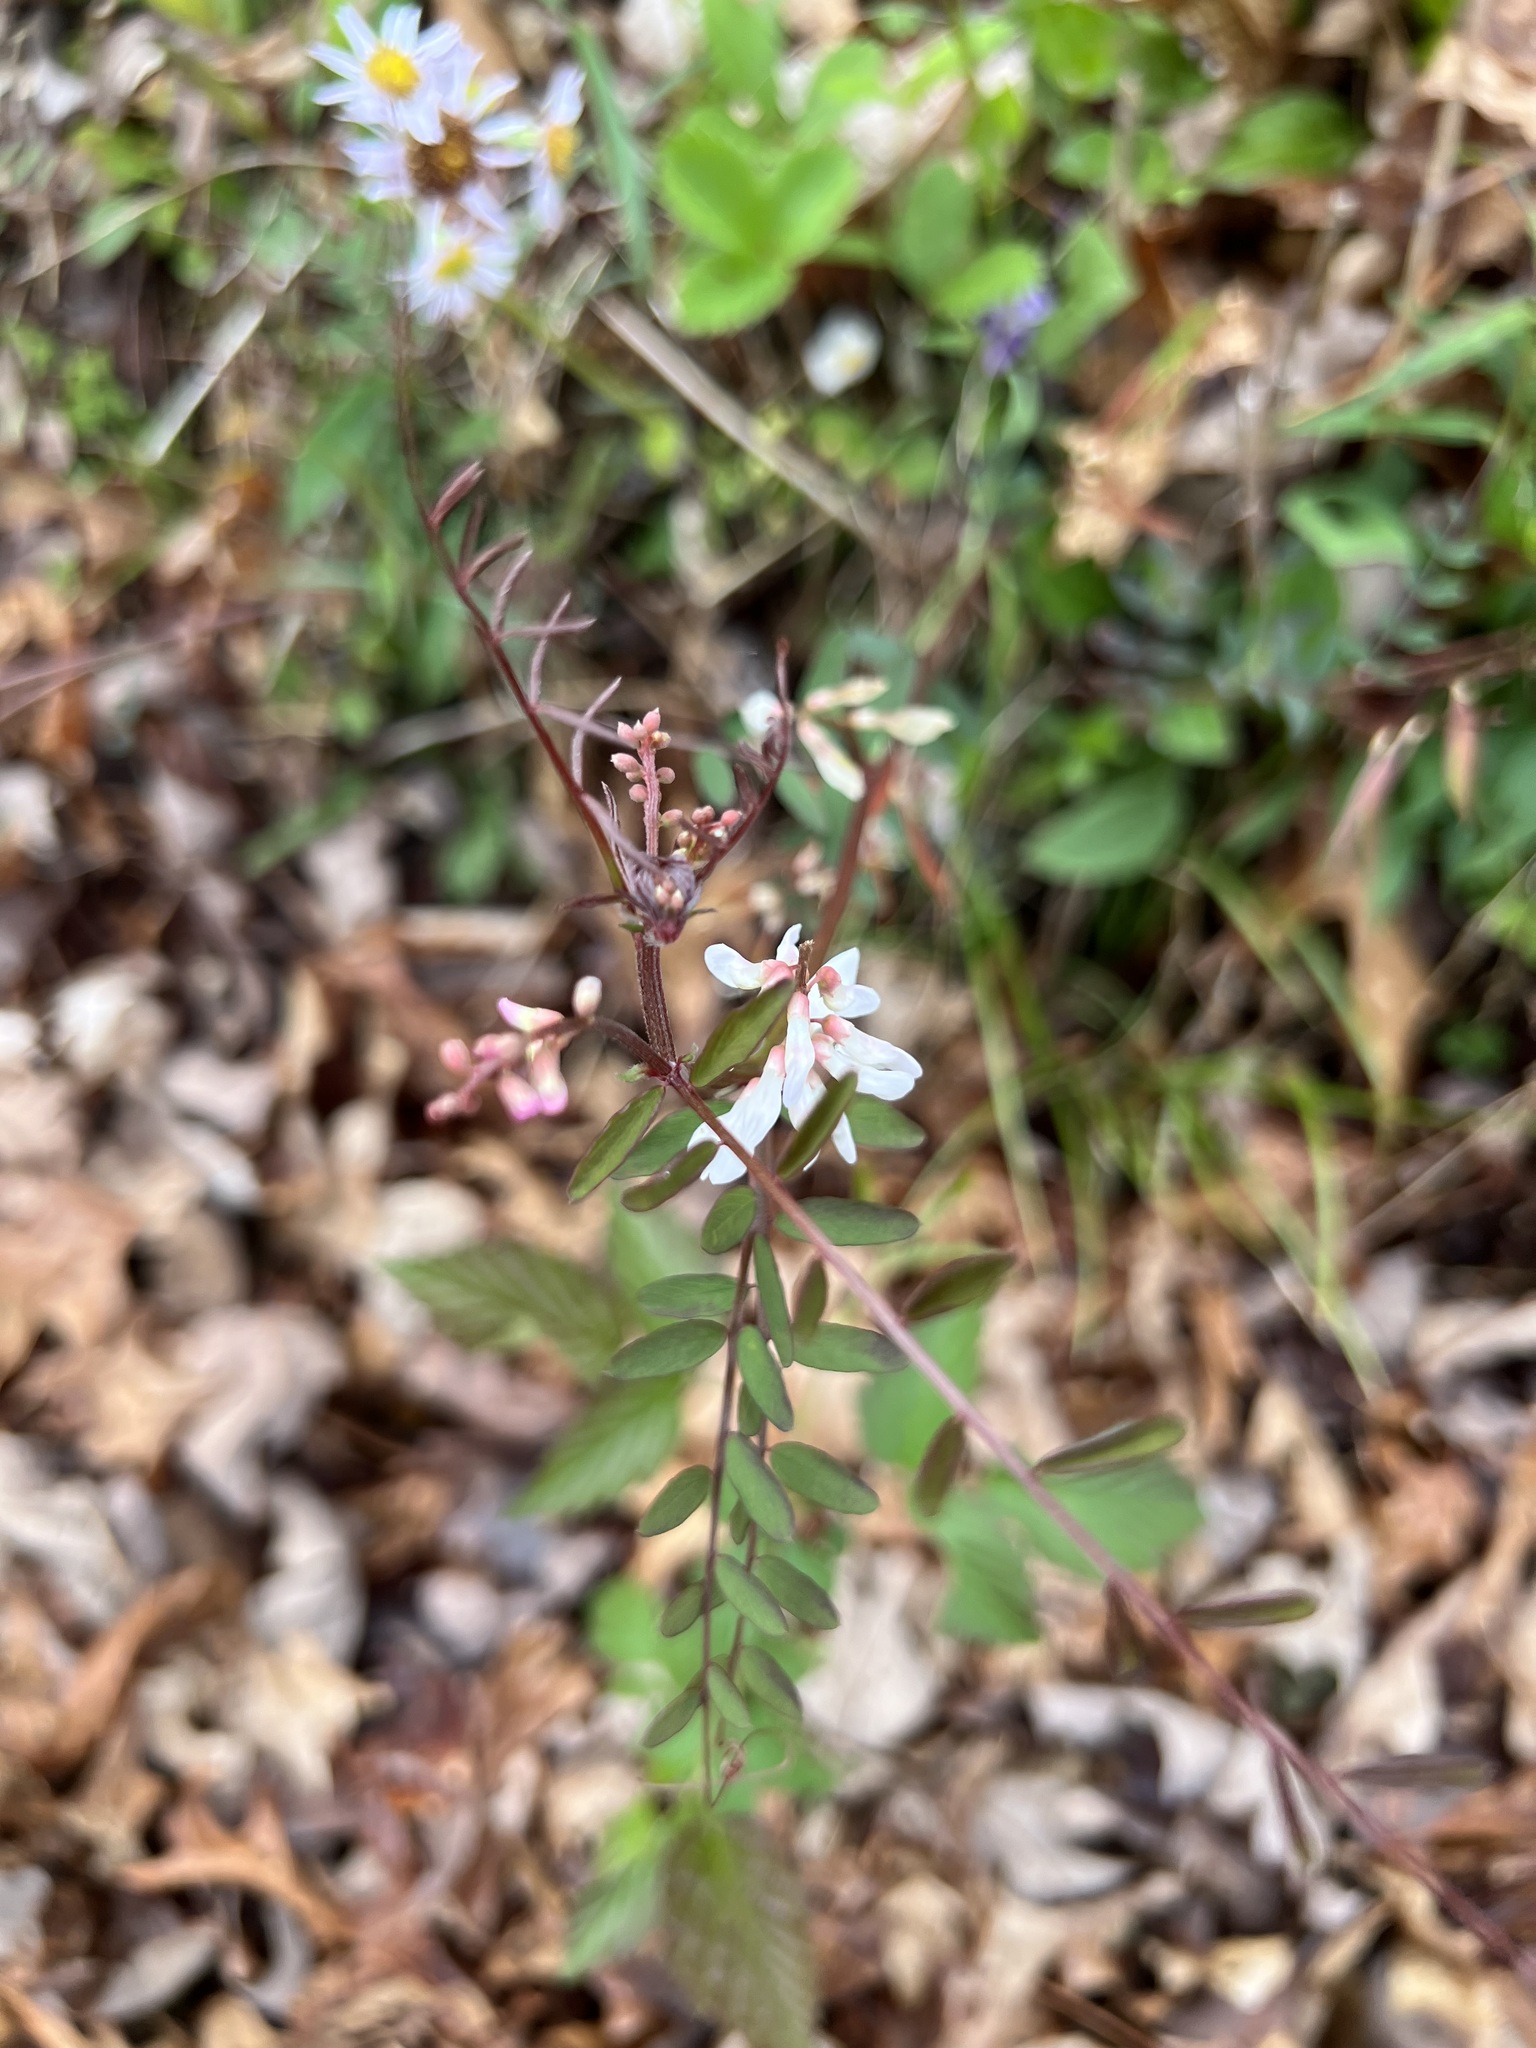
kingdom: Plantae
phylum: Tracheophyta
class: Magnoliopsida
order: Fabales
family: Fabaceae
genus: Vicia
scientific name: Vicia caroliniana
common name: Carolina vetch
